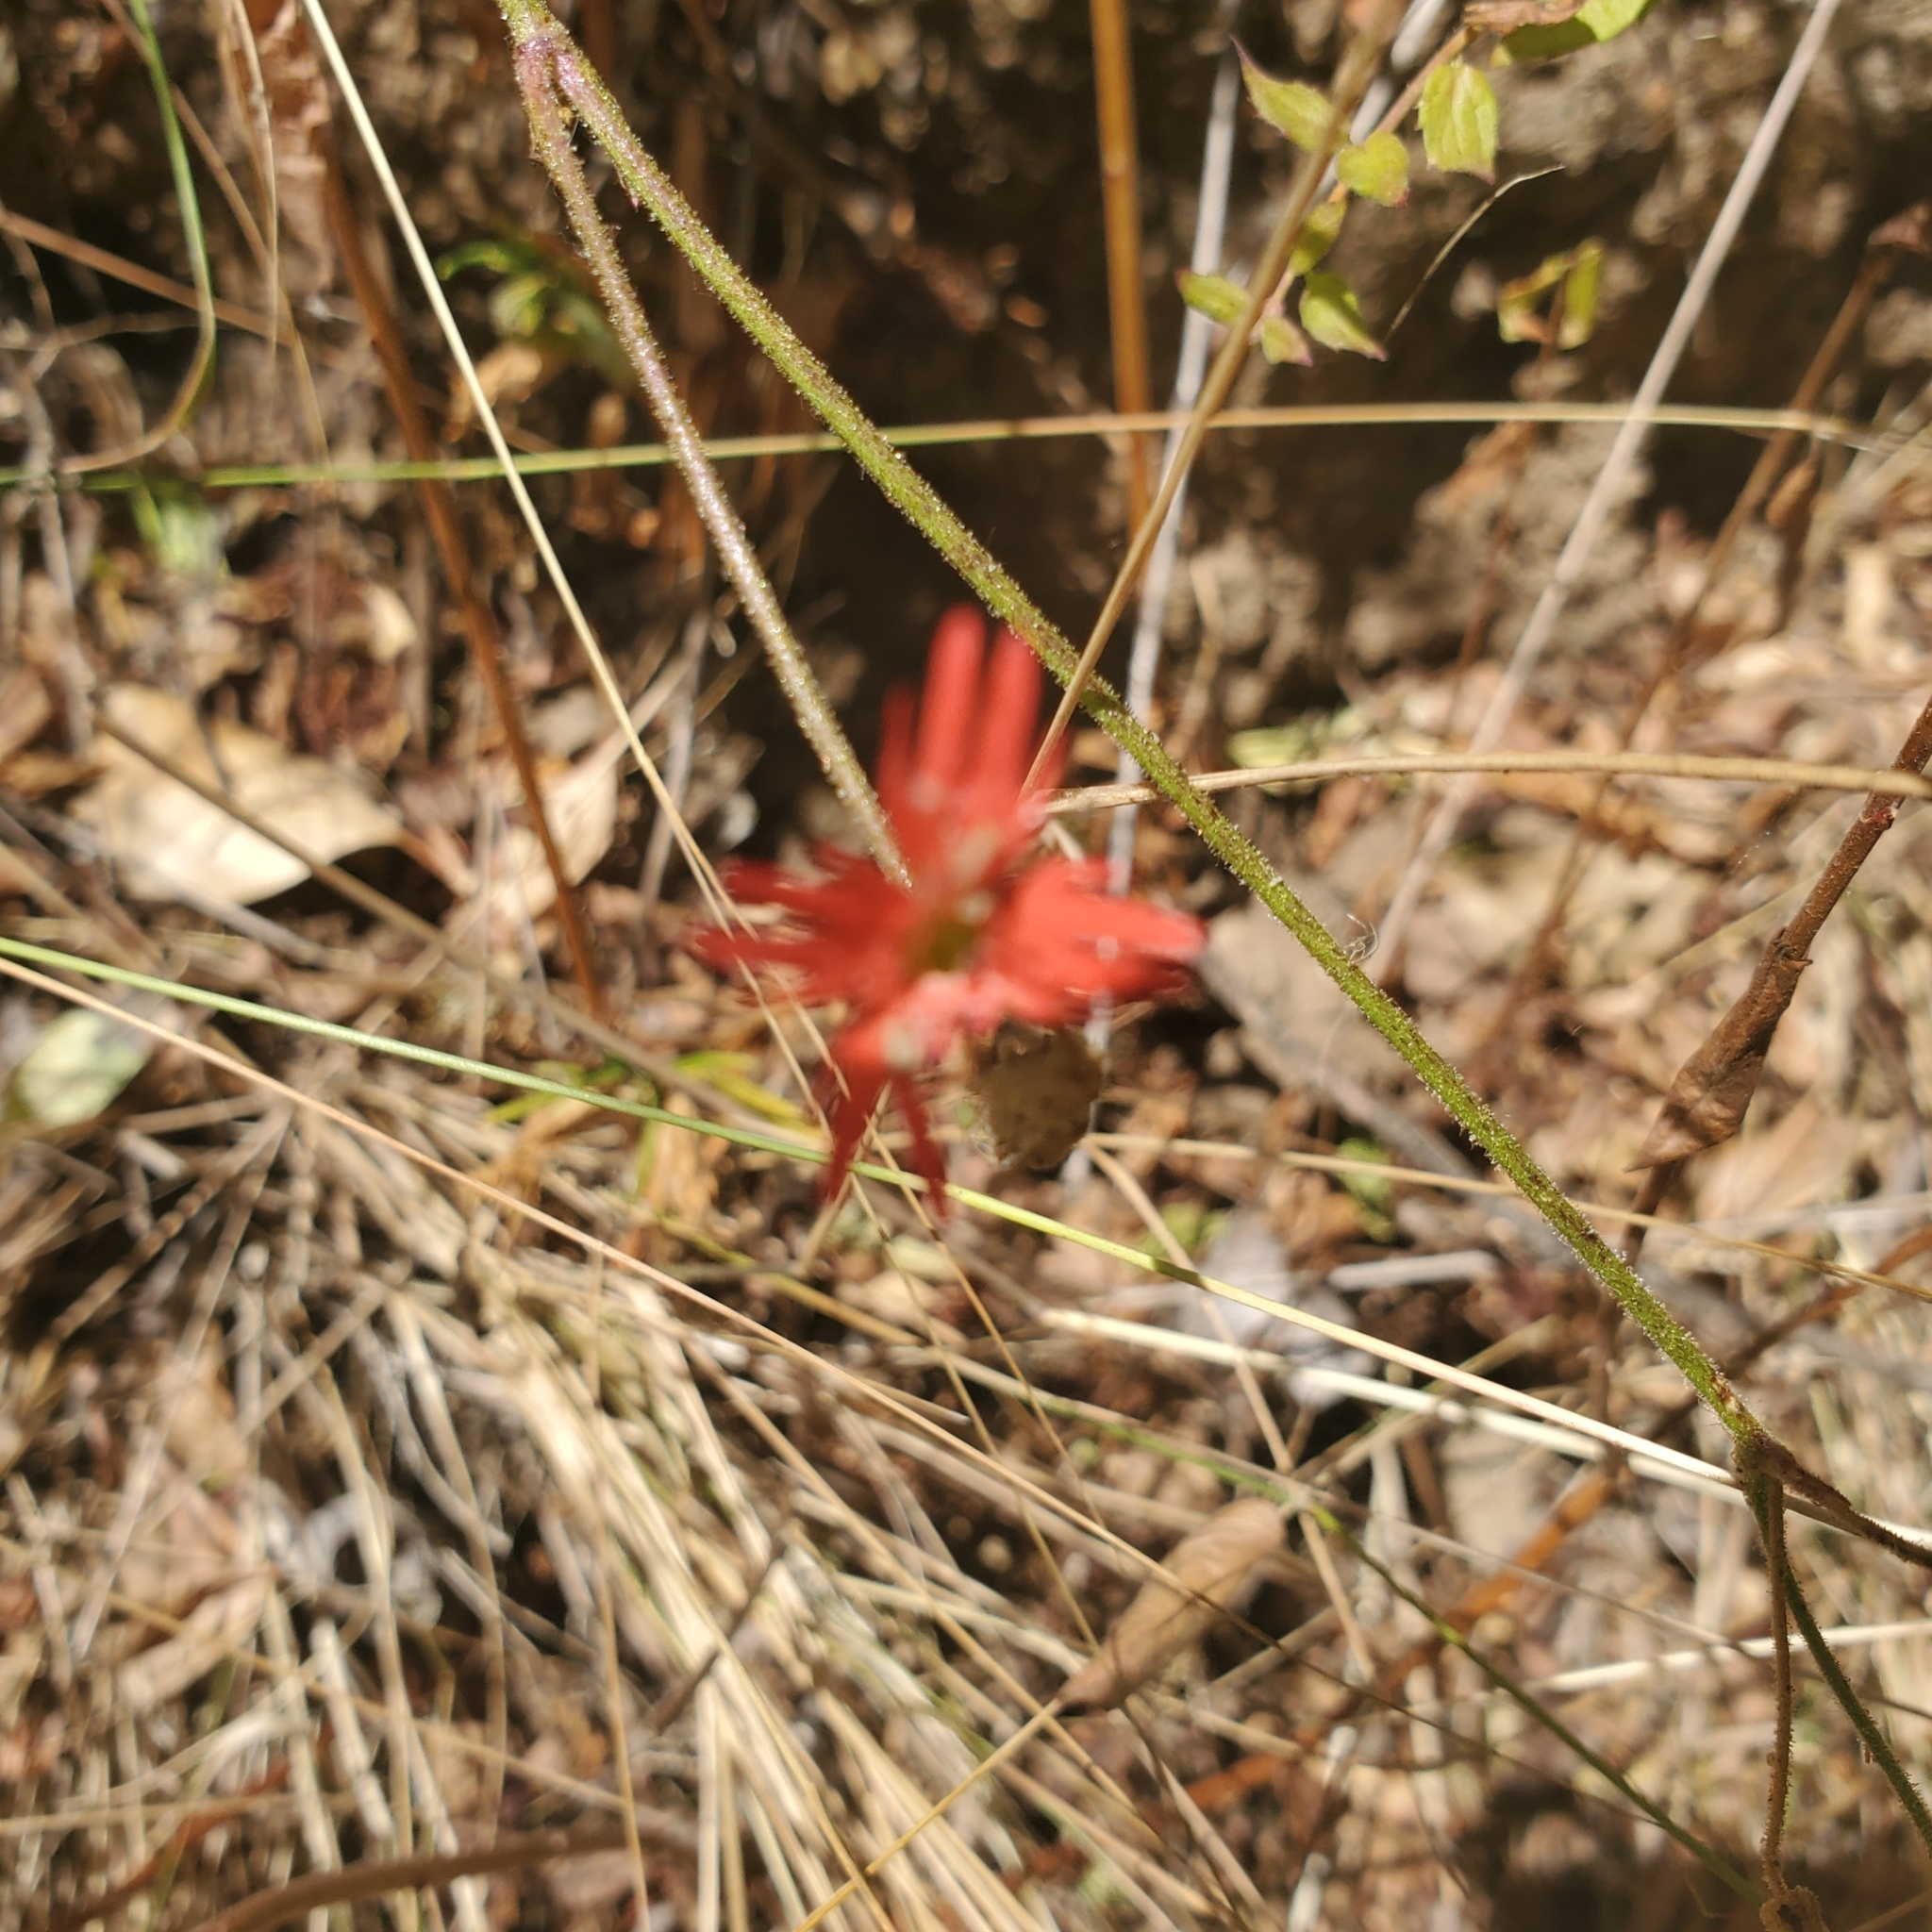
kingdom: Plantae
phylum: Tracheophyta
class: Magnoliopsida
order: Caryophyllales
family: Caryophyllaceae
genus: Silene
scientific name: Silene laciniata
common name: Indian-pink
